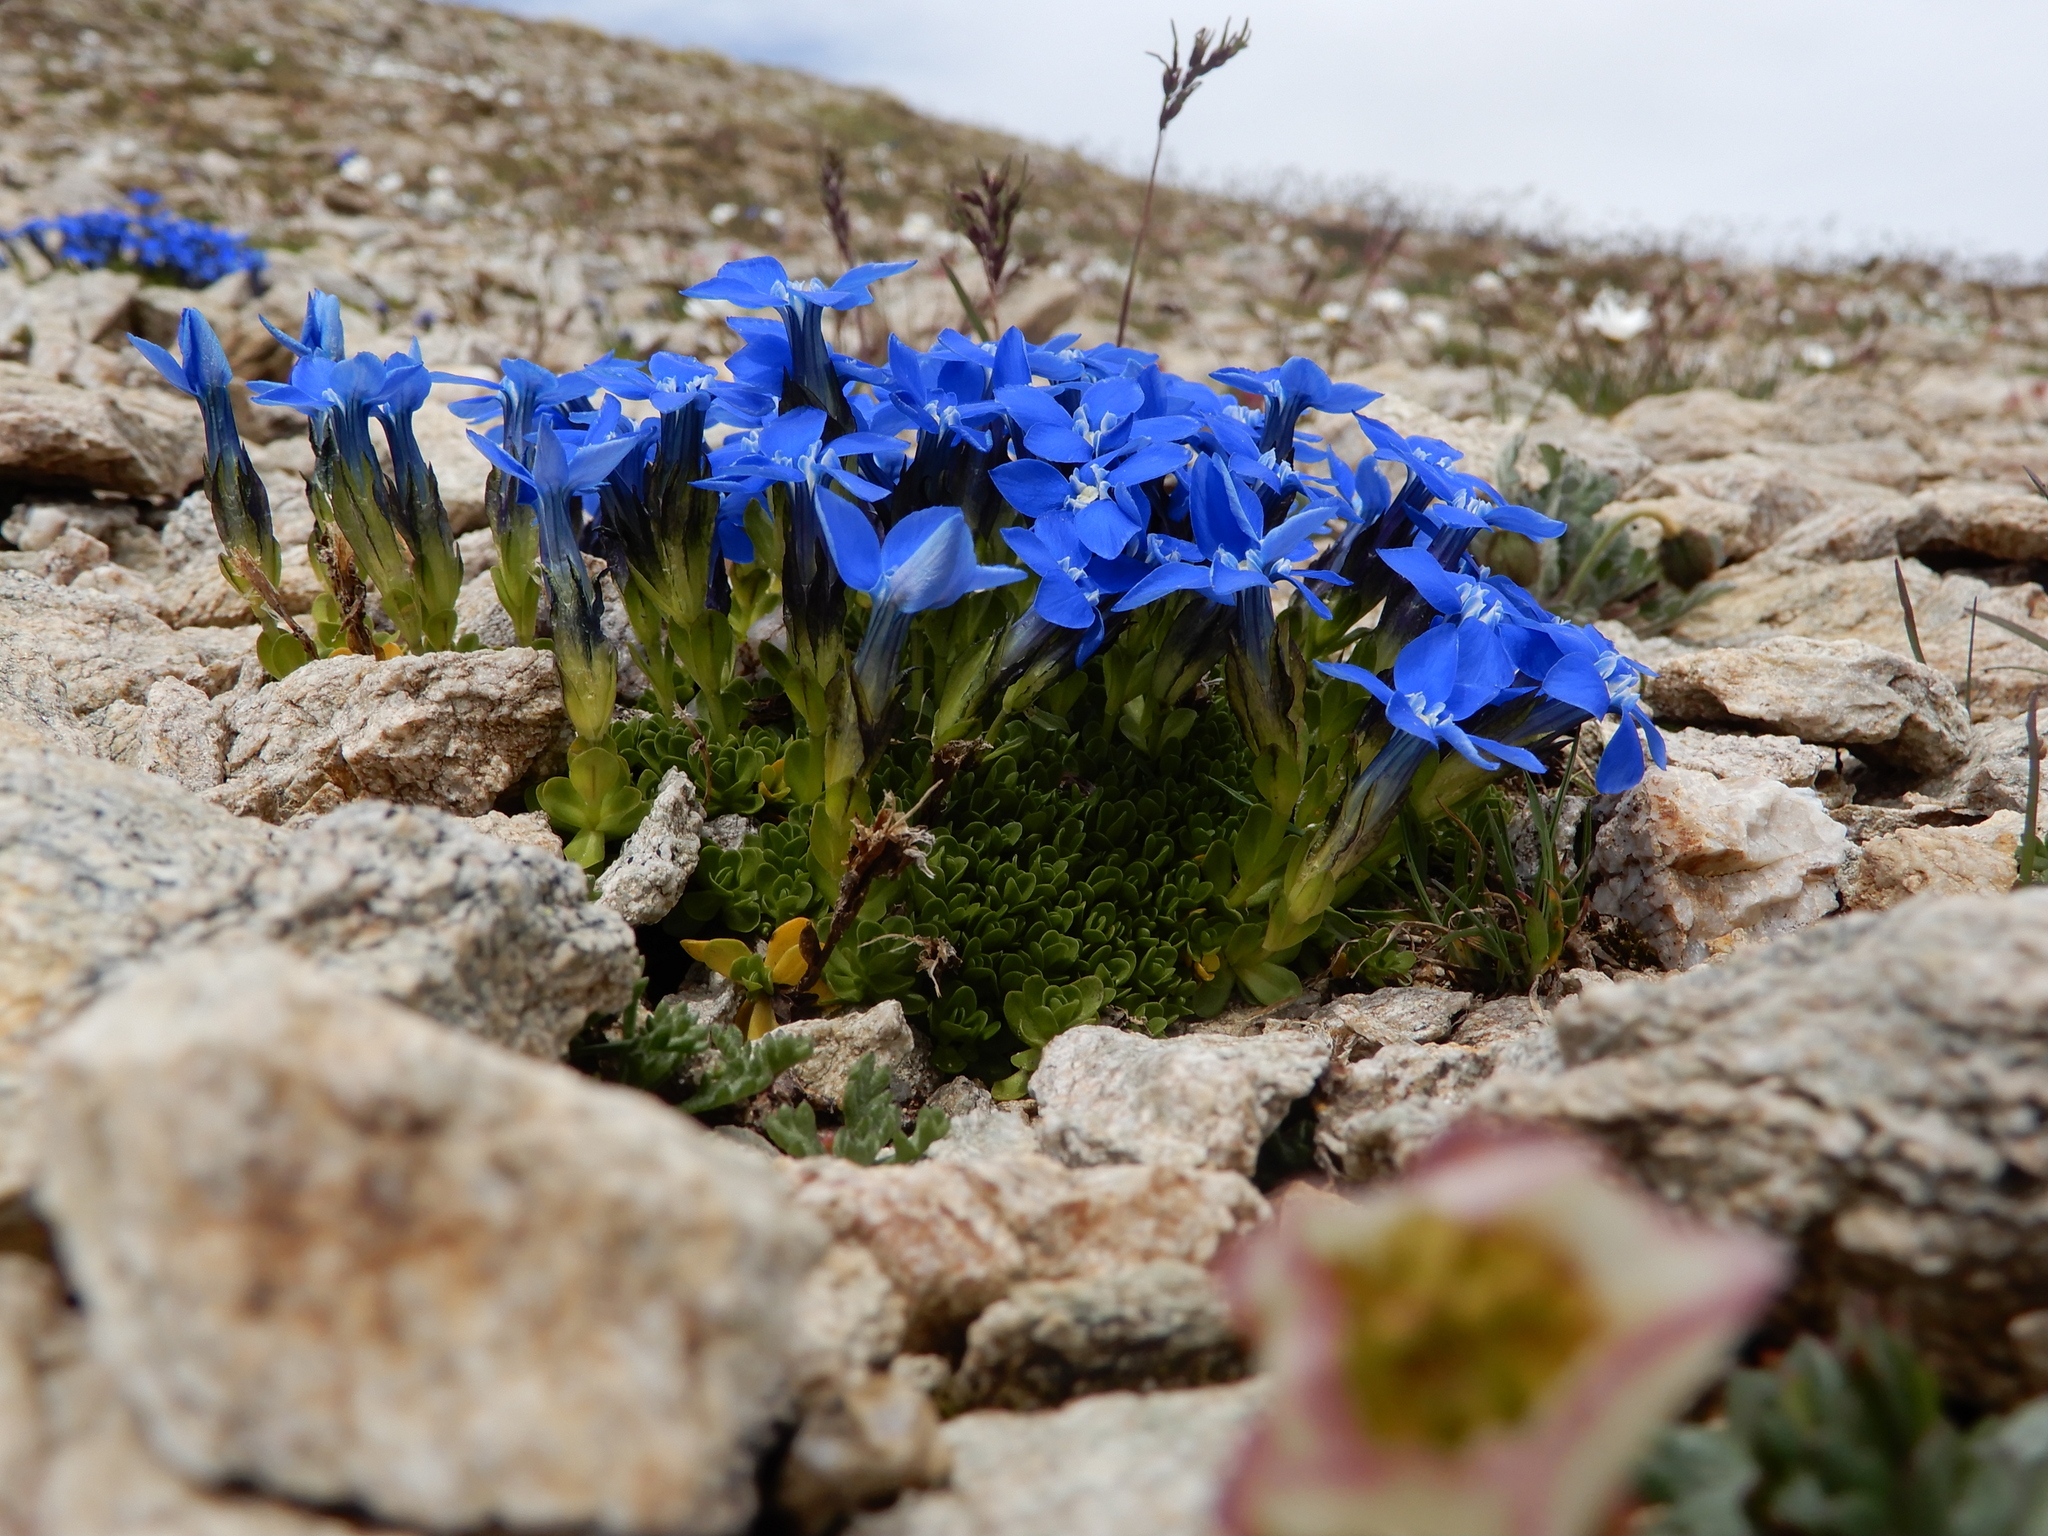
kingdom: Plantae
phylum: Tracheophyta
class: Magnoliopsida
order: Gentianales
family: Gentianaceae
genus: Gentiana
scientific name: Gentiana bavarica
